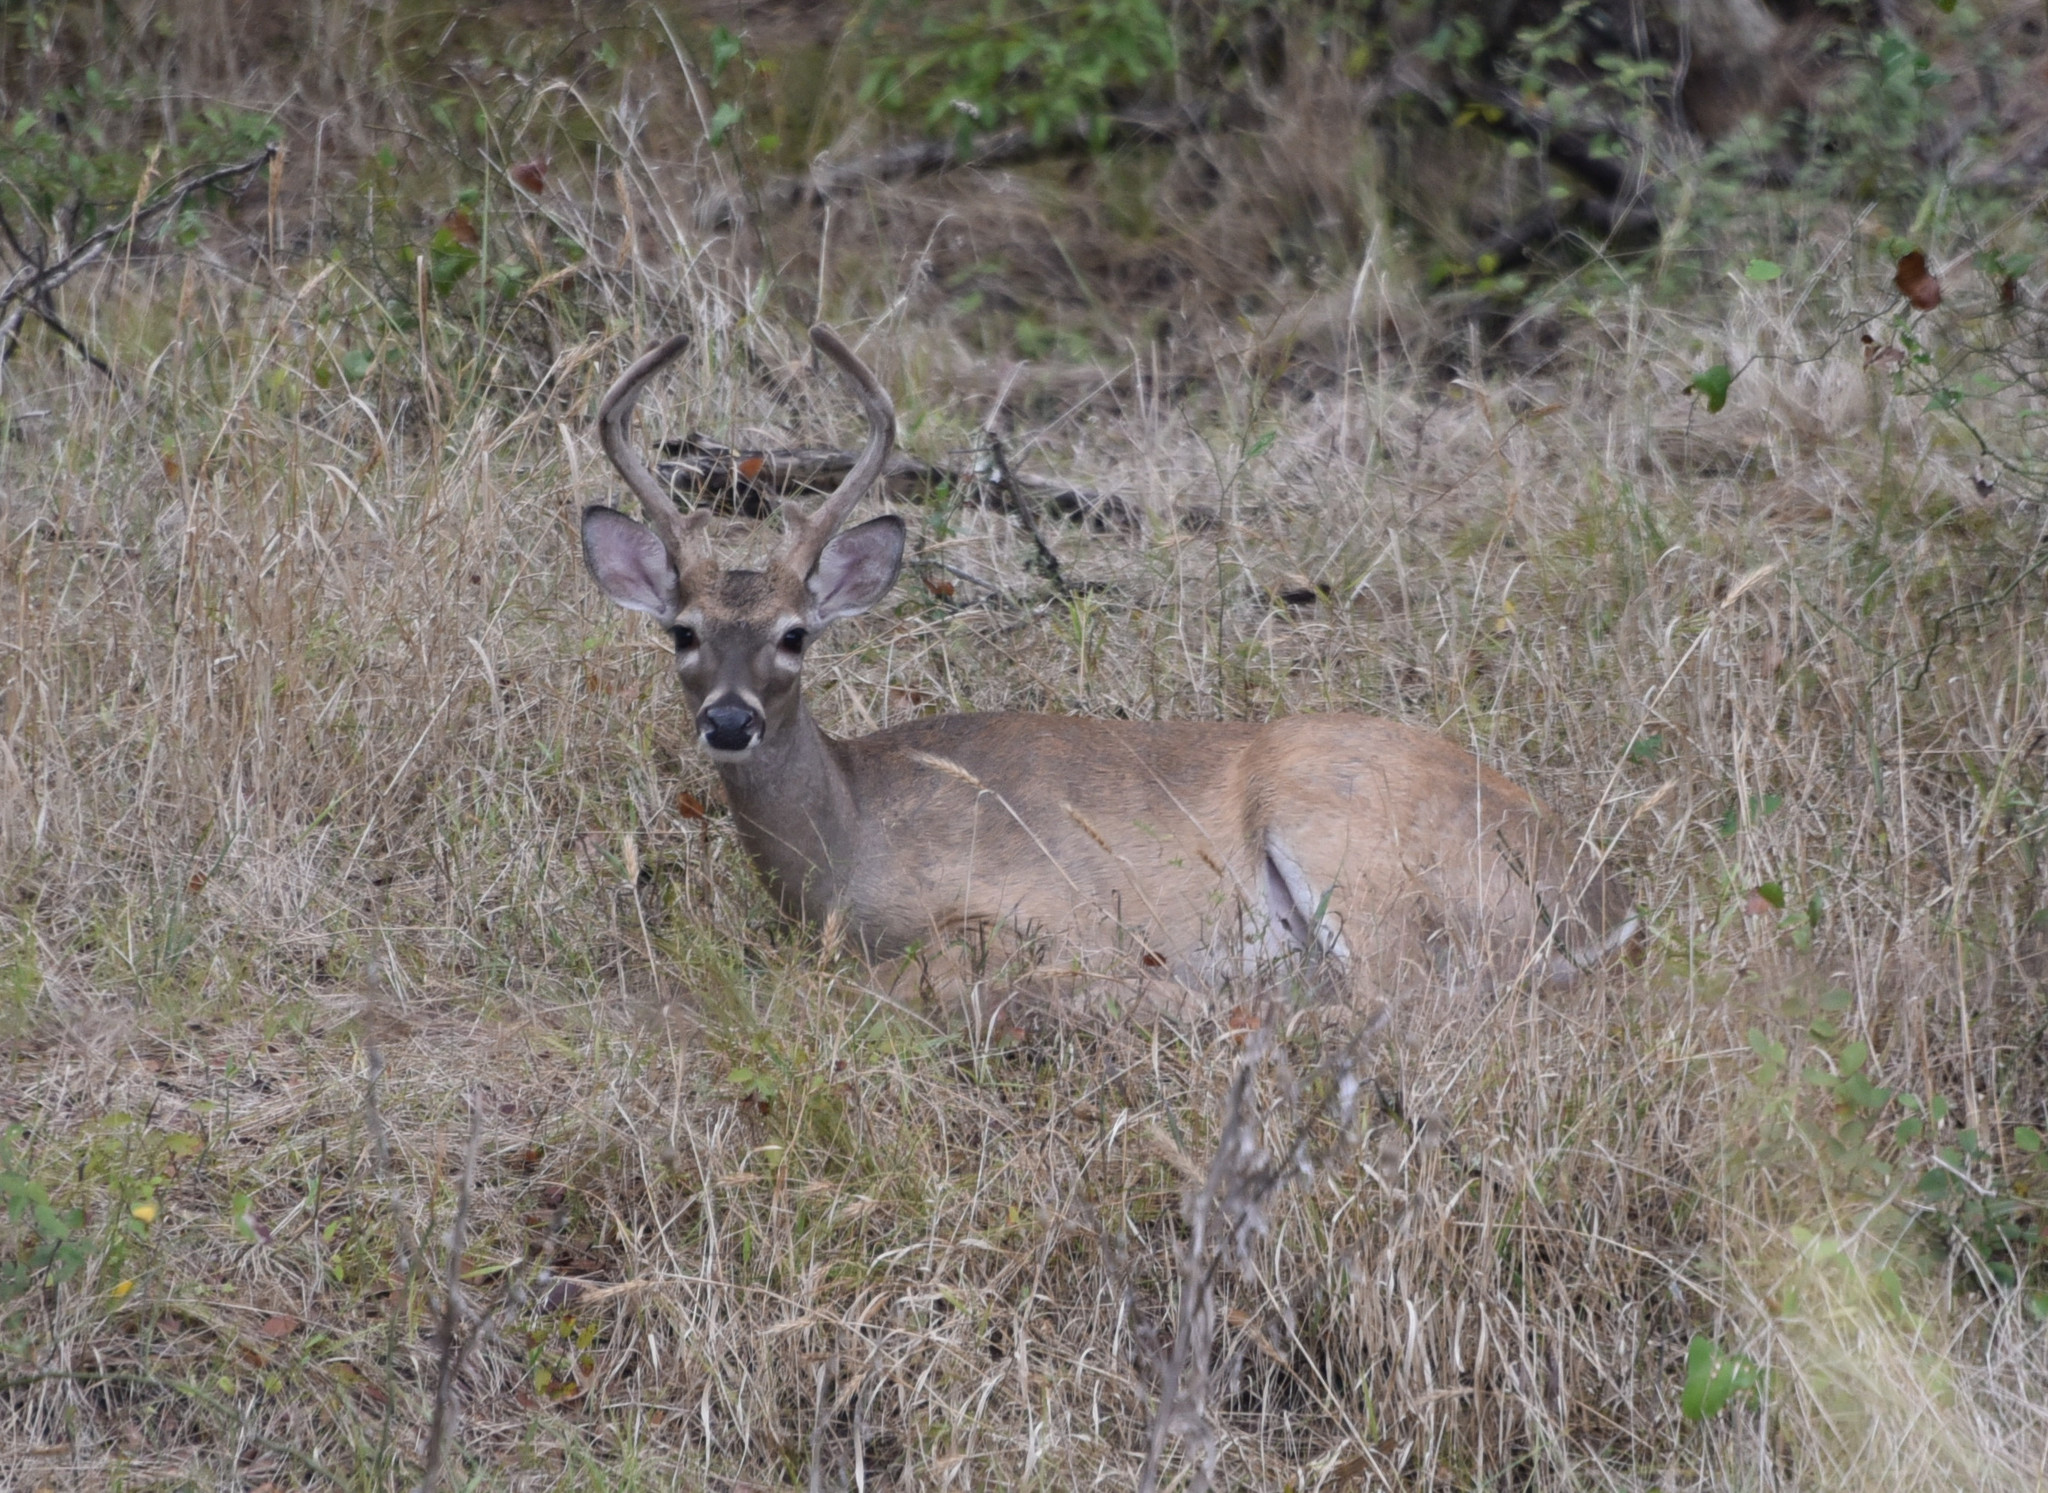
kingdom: Animalia
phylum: Chordata
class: Mammalia
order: Artiodactyla
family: Cervidae
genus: Odocoileus
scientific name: Odocoileus virginianus
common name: White-tailed deer
